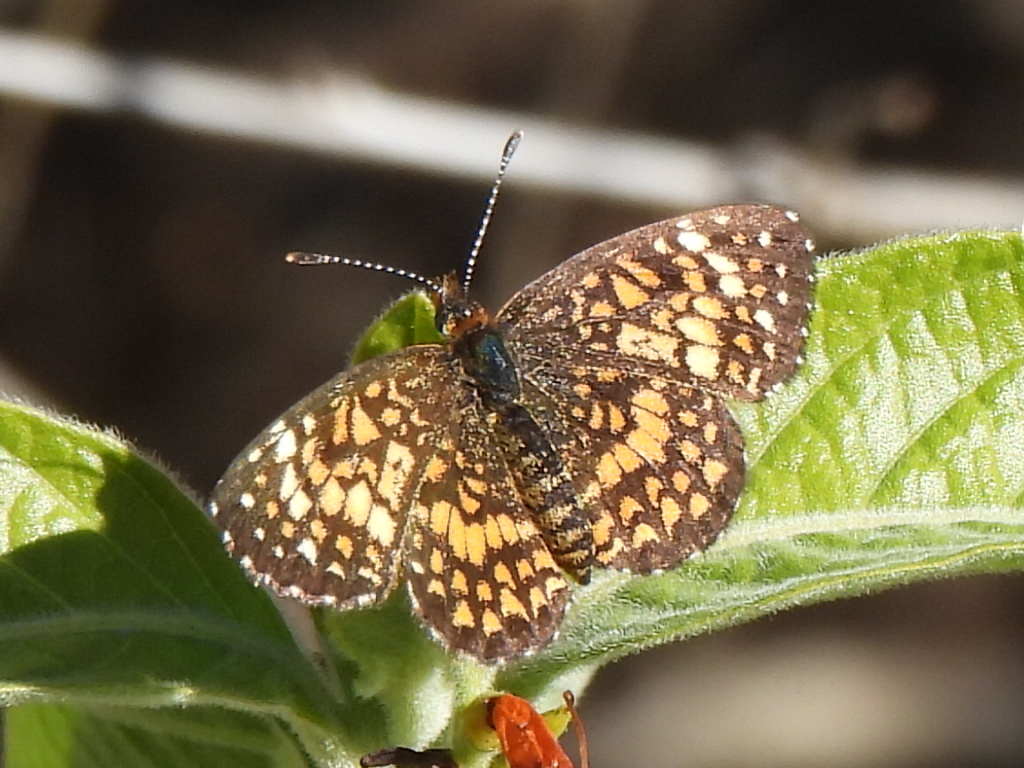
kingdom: Animalia
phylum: Arthropoda
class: Insecta
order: Lepidoptera
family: Nymphalidae
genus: Texola
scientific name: Texola elada
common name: Elada checkerspot
